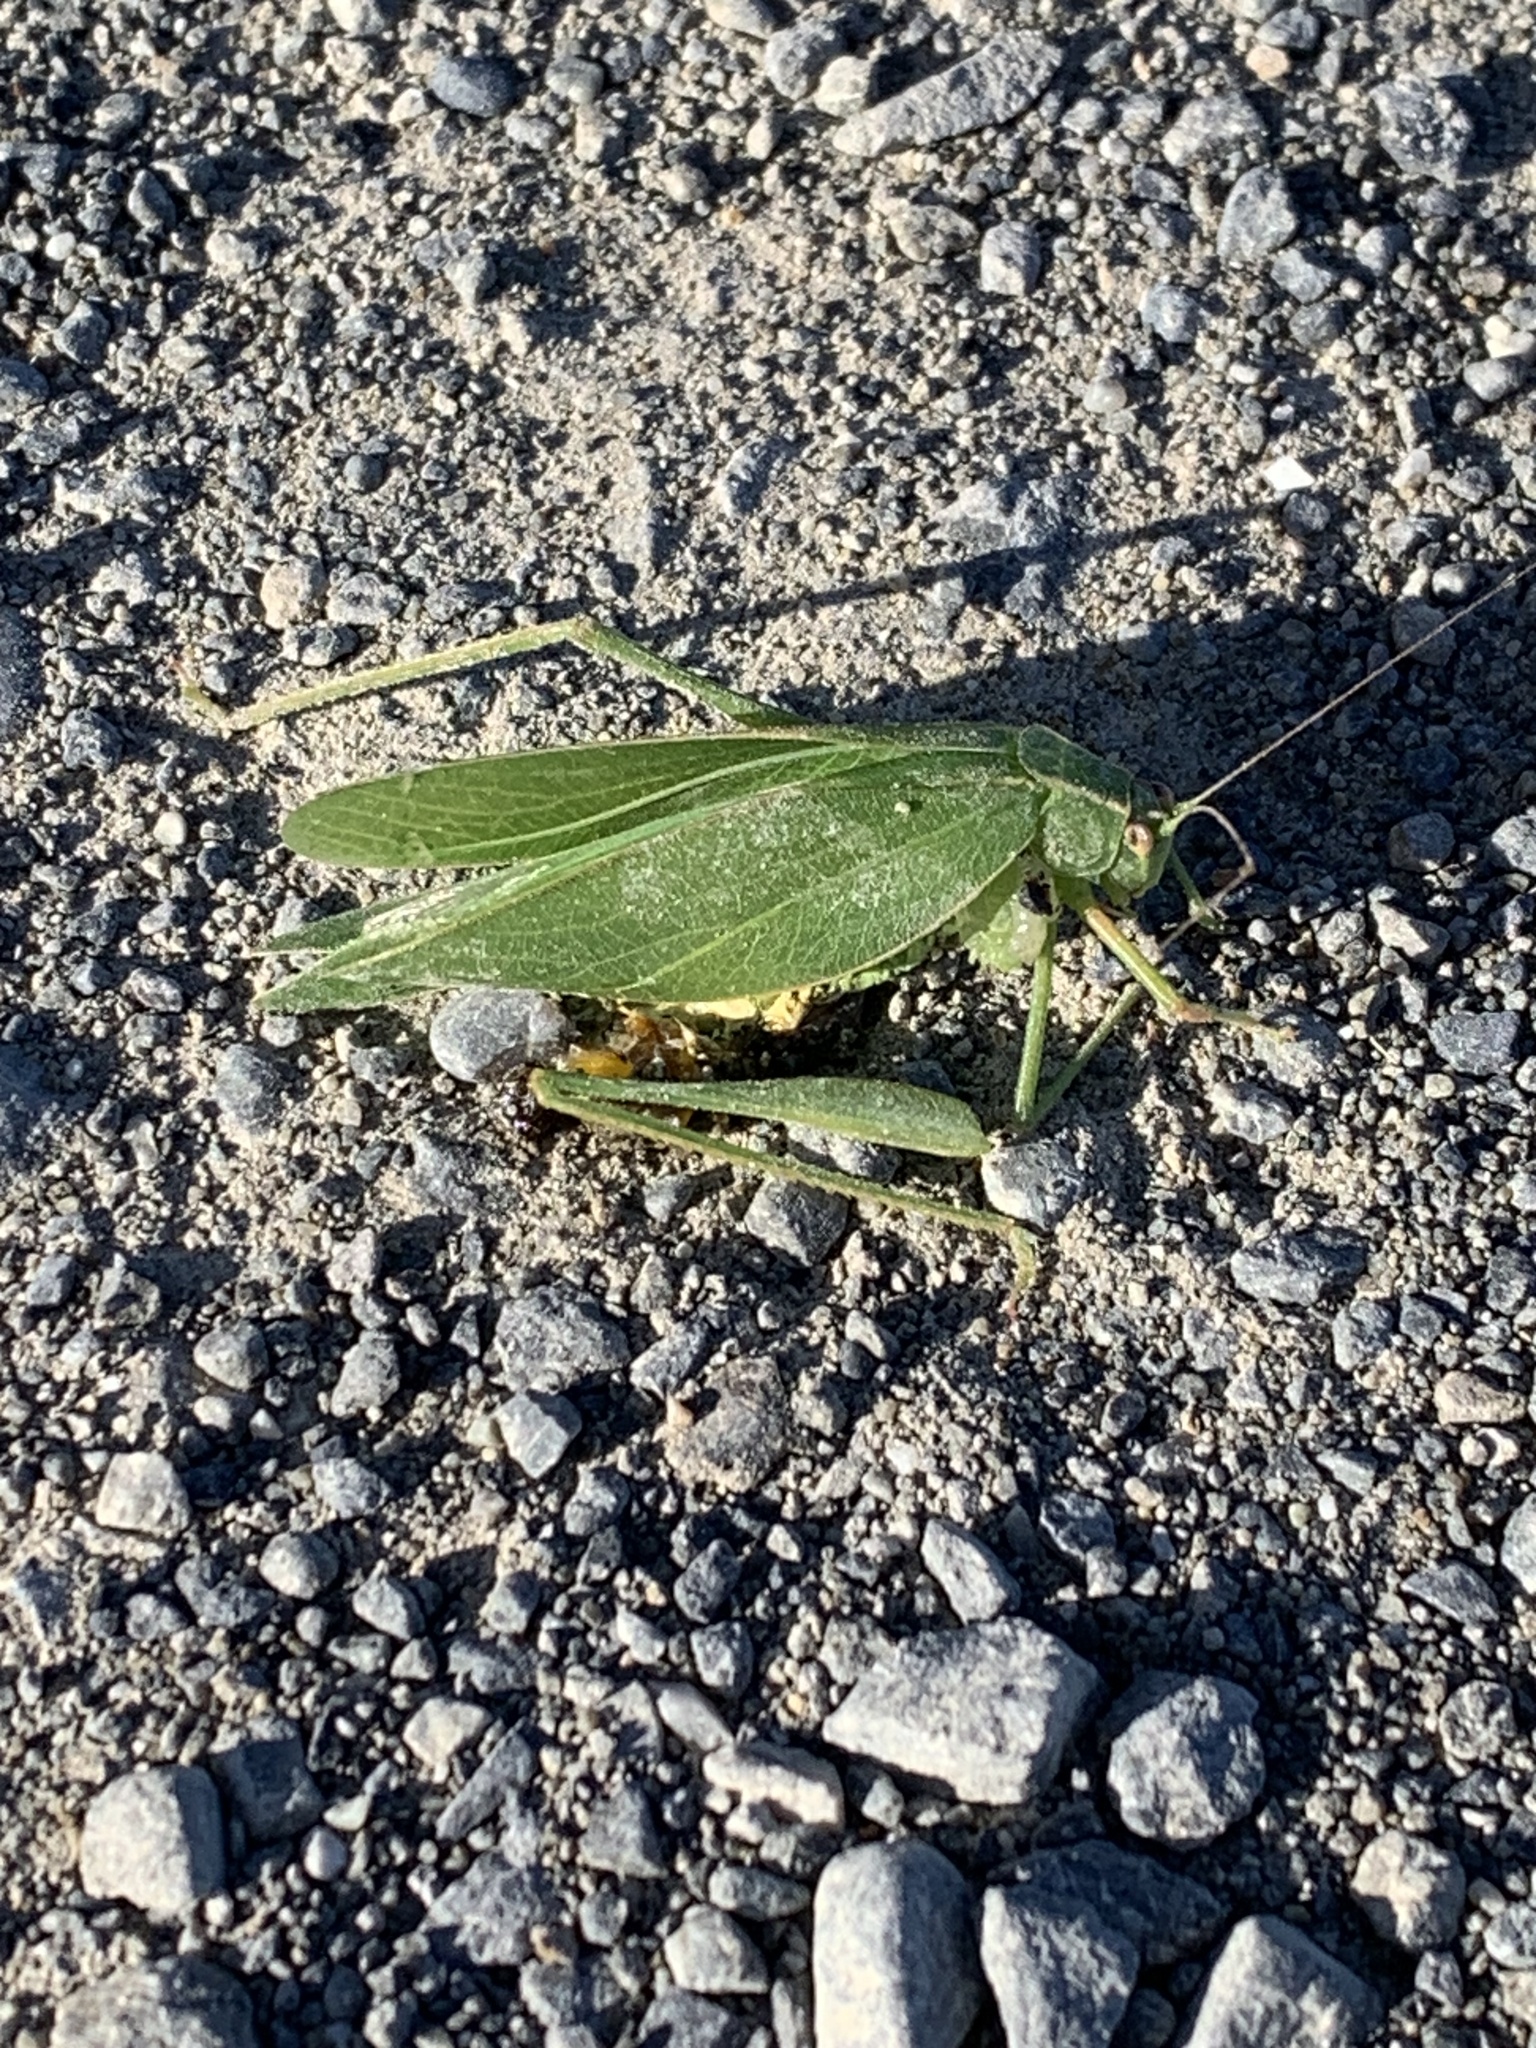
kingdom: Animalia
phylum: Arthropoda
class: Insecta
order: Orthoptera
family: Tettigoniidae
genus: Caedicia
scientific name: Caedicia simplex
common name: Common garden katydid
